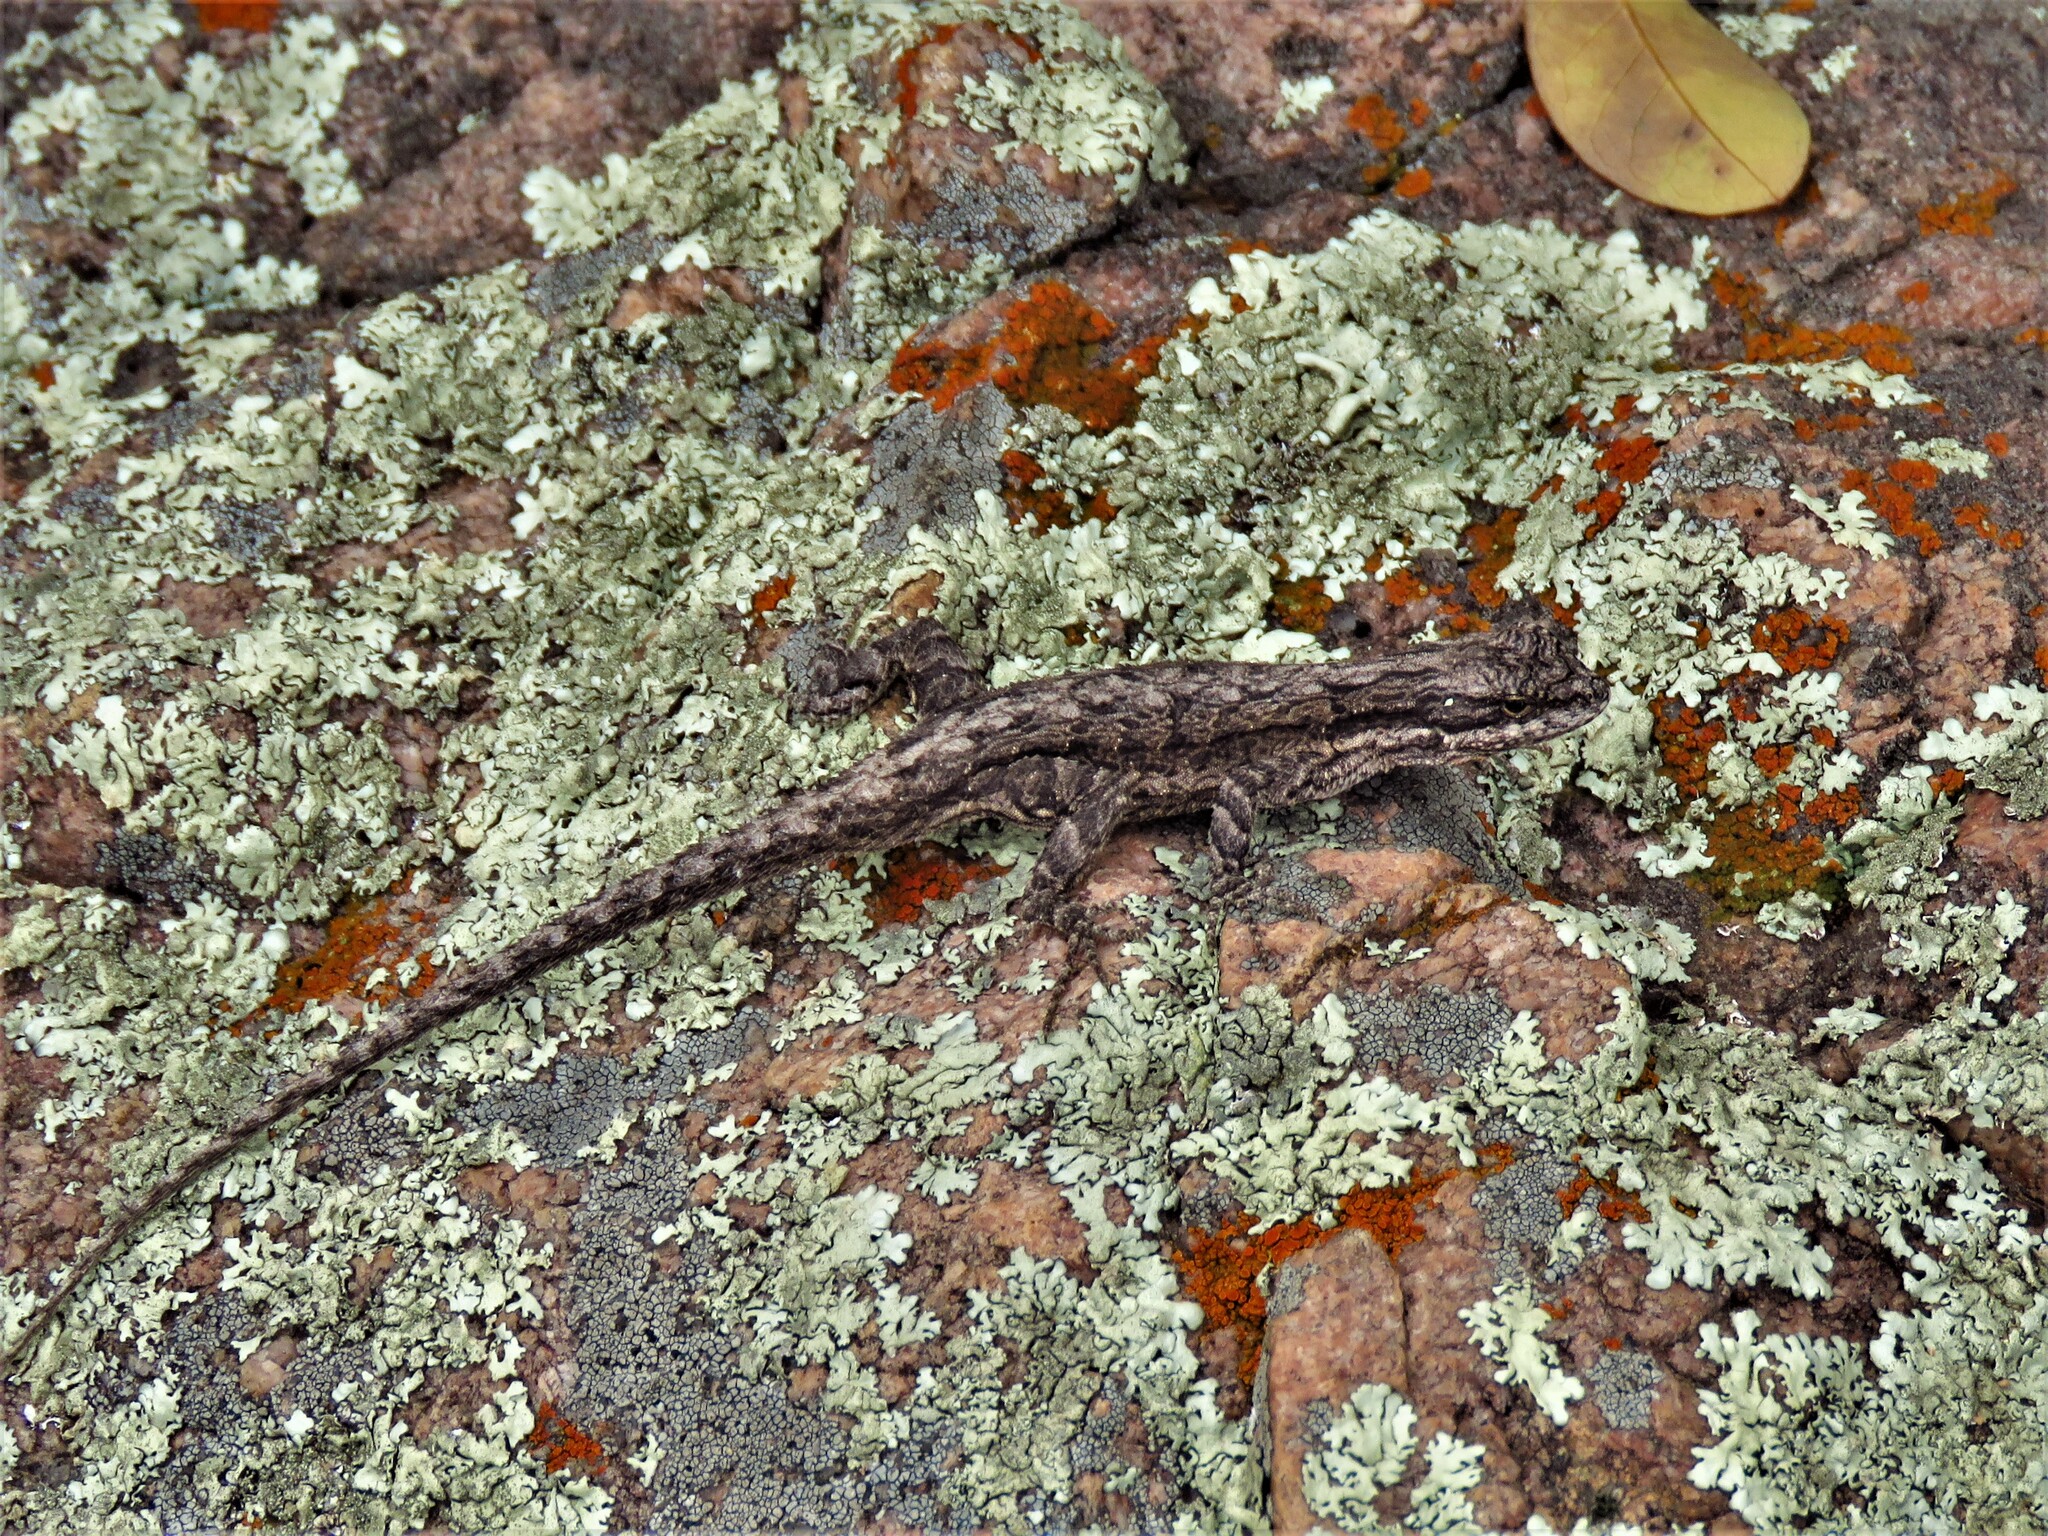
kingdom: Animalia
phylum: Chordata
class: Squamata
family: Phrynosomatidae
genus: Urosaurus
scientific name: Urosaurus ornatus
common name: Ornate tree lizard
